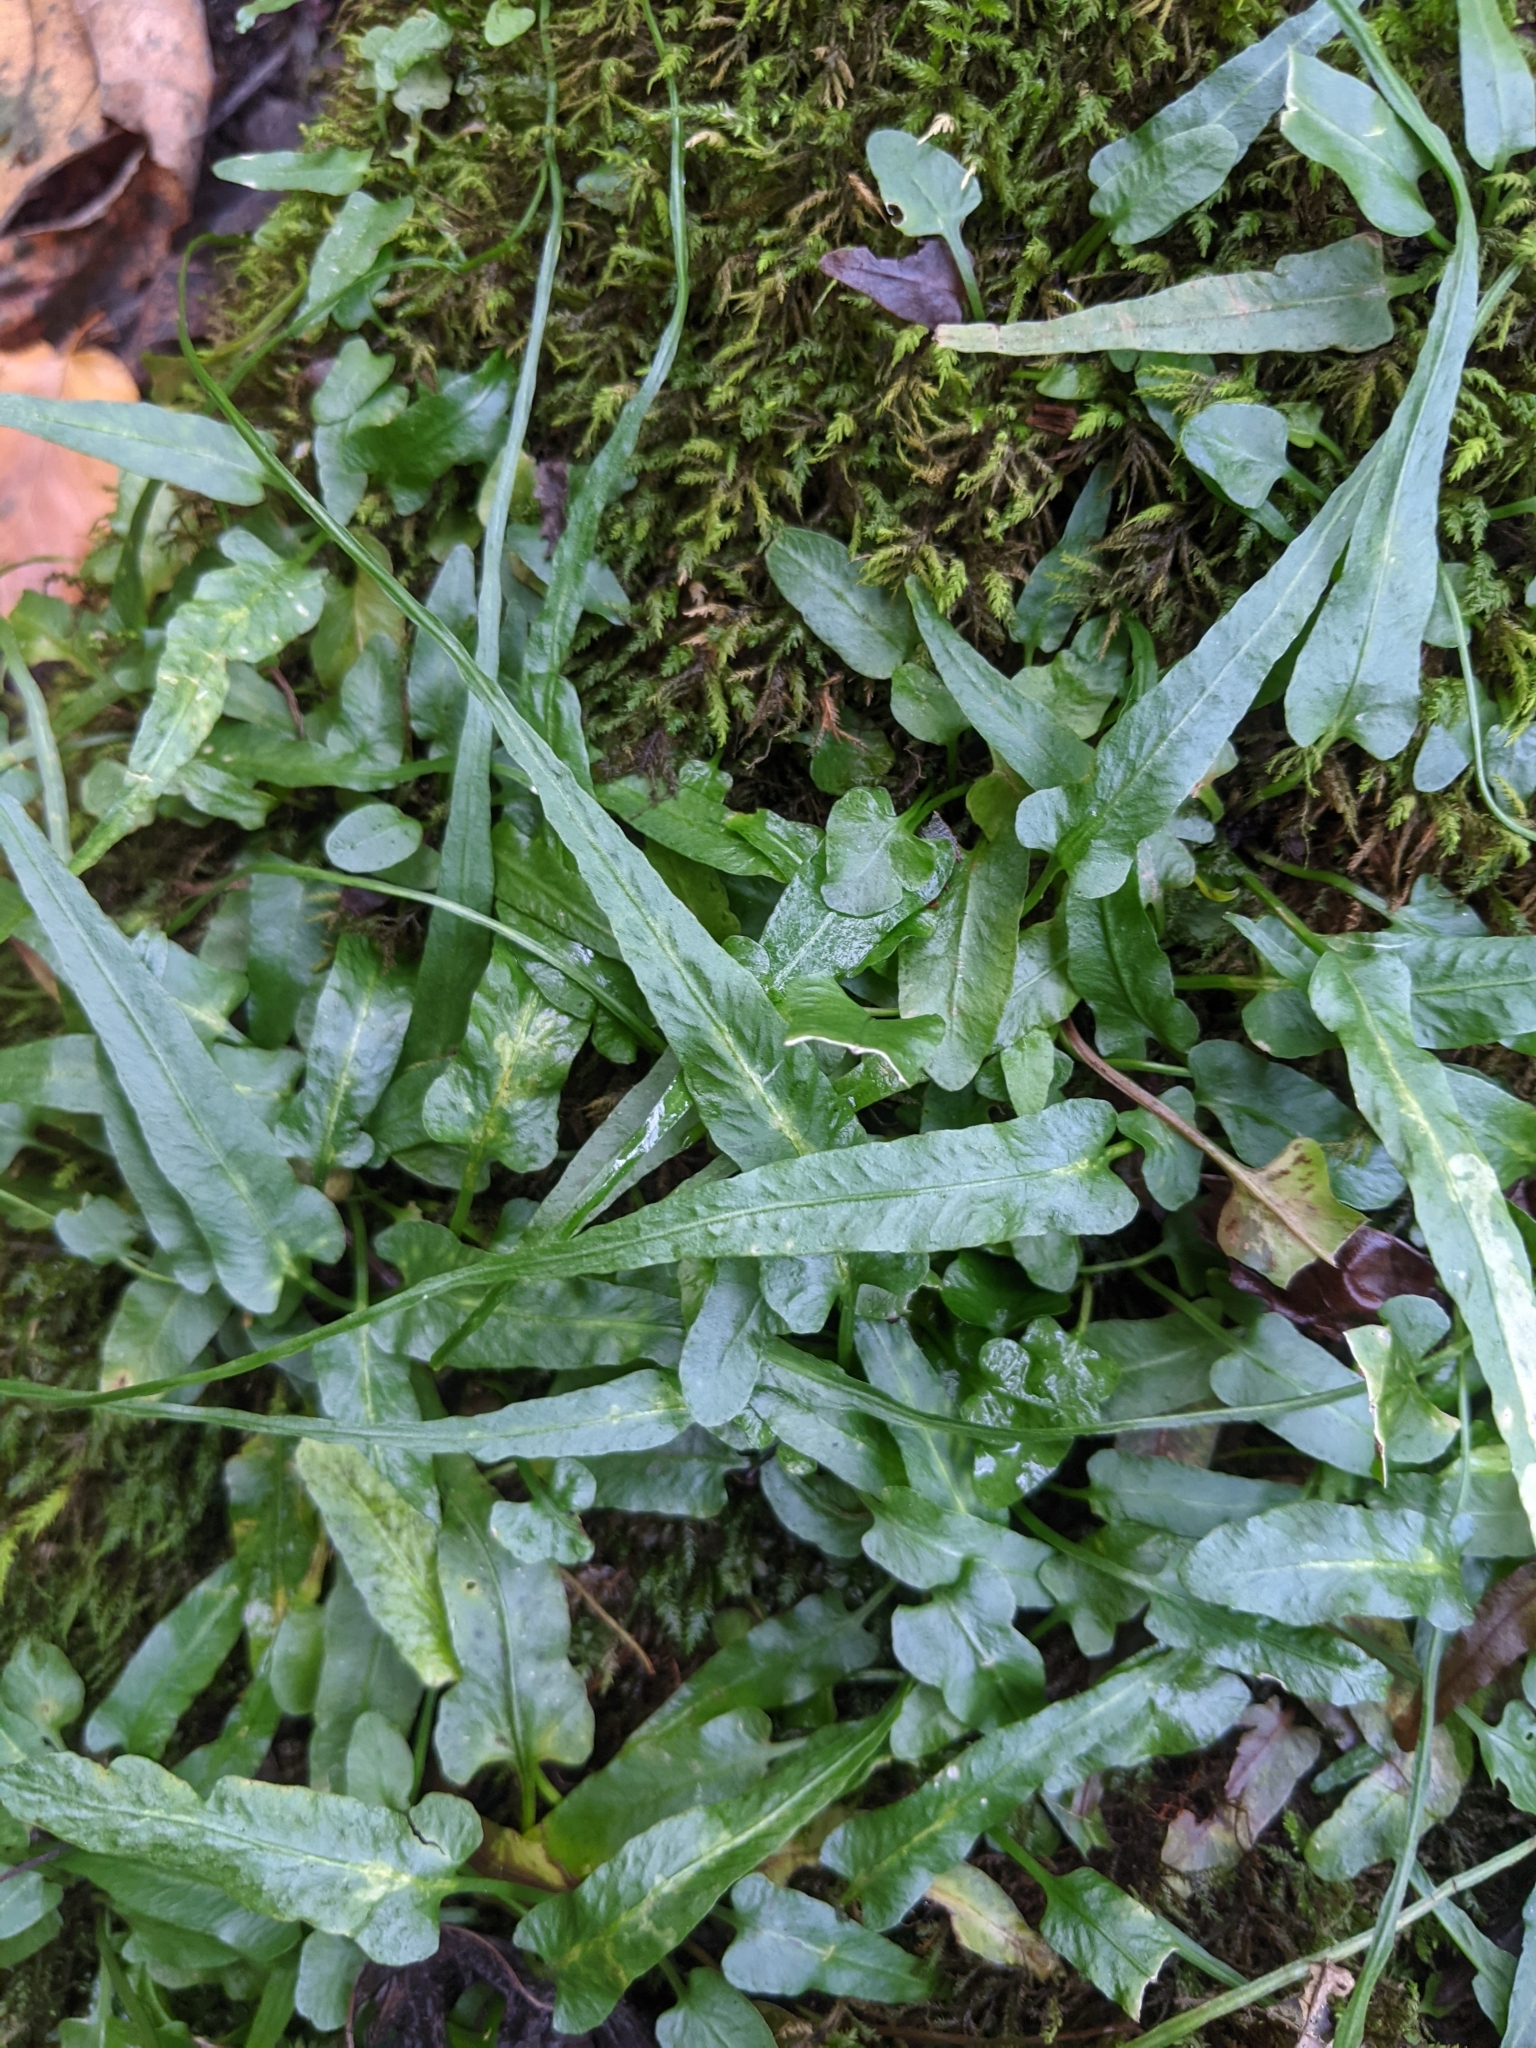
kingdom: Plantae
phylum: Tracheophyta
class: Polypodiopsida
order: Polypodiales
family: Aspleniaceae
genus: Asplenium
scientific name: Asplenium rhizophyllum
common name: Walking fern
